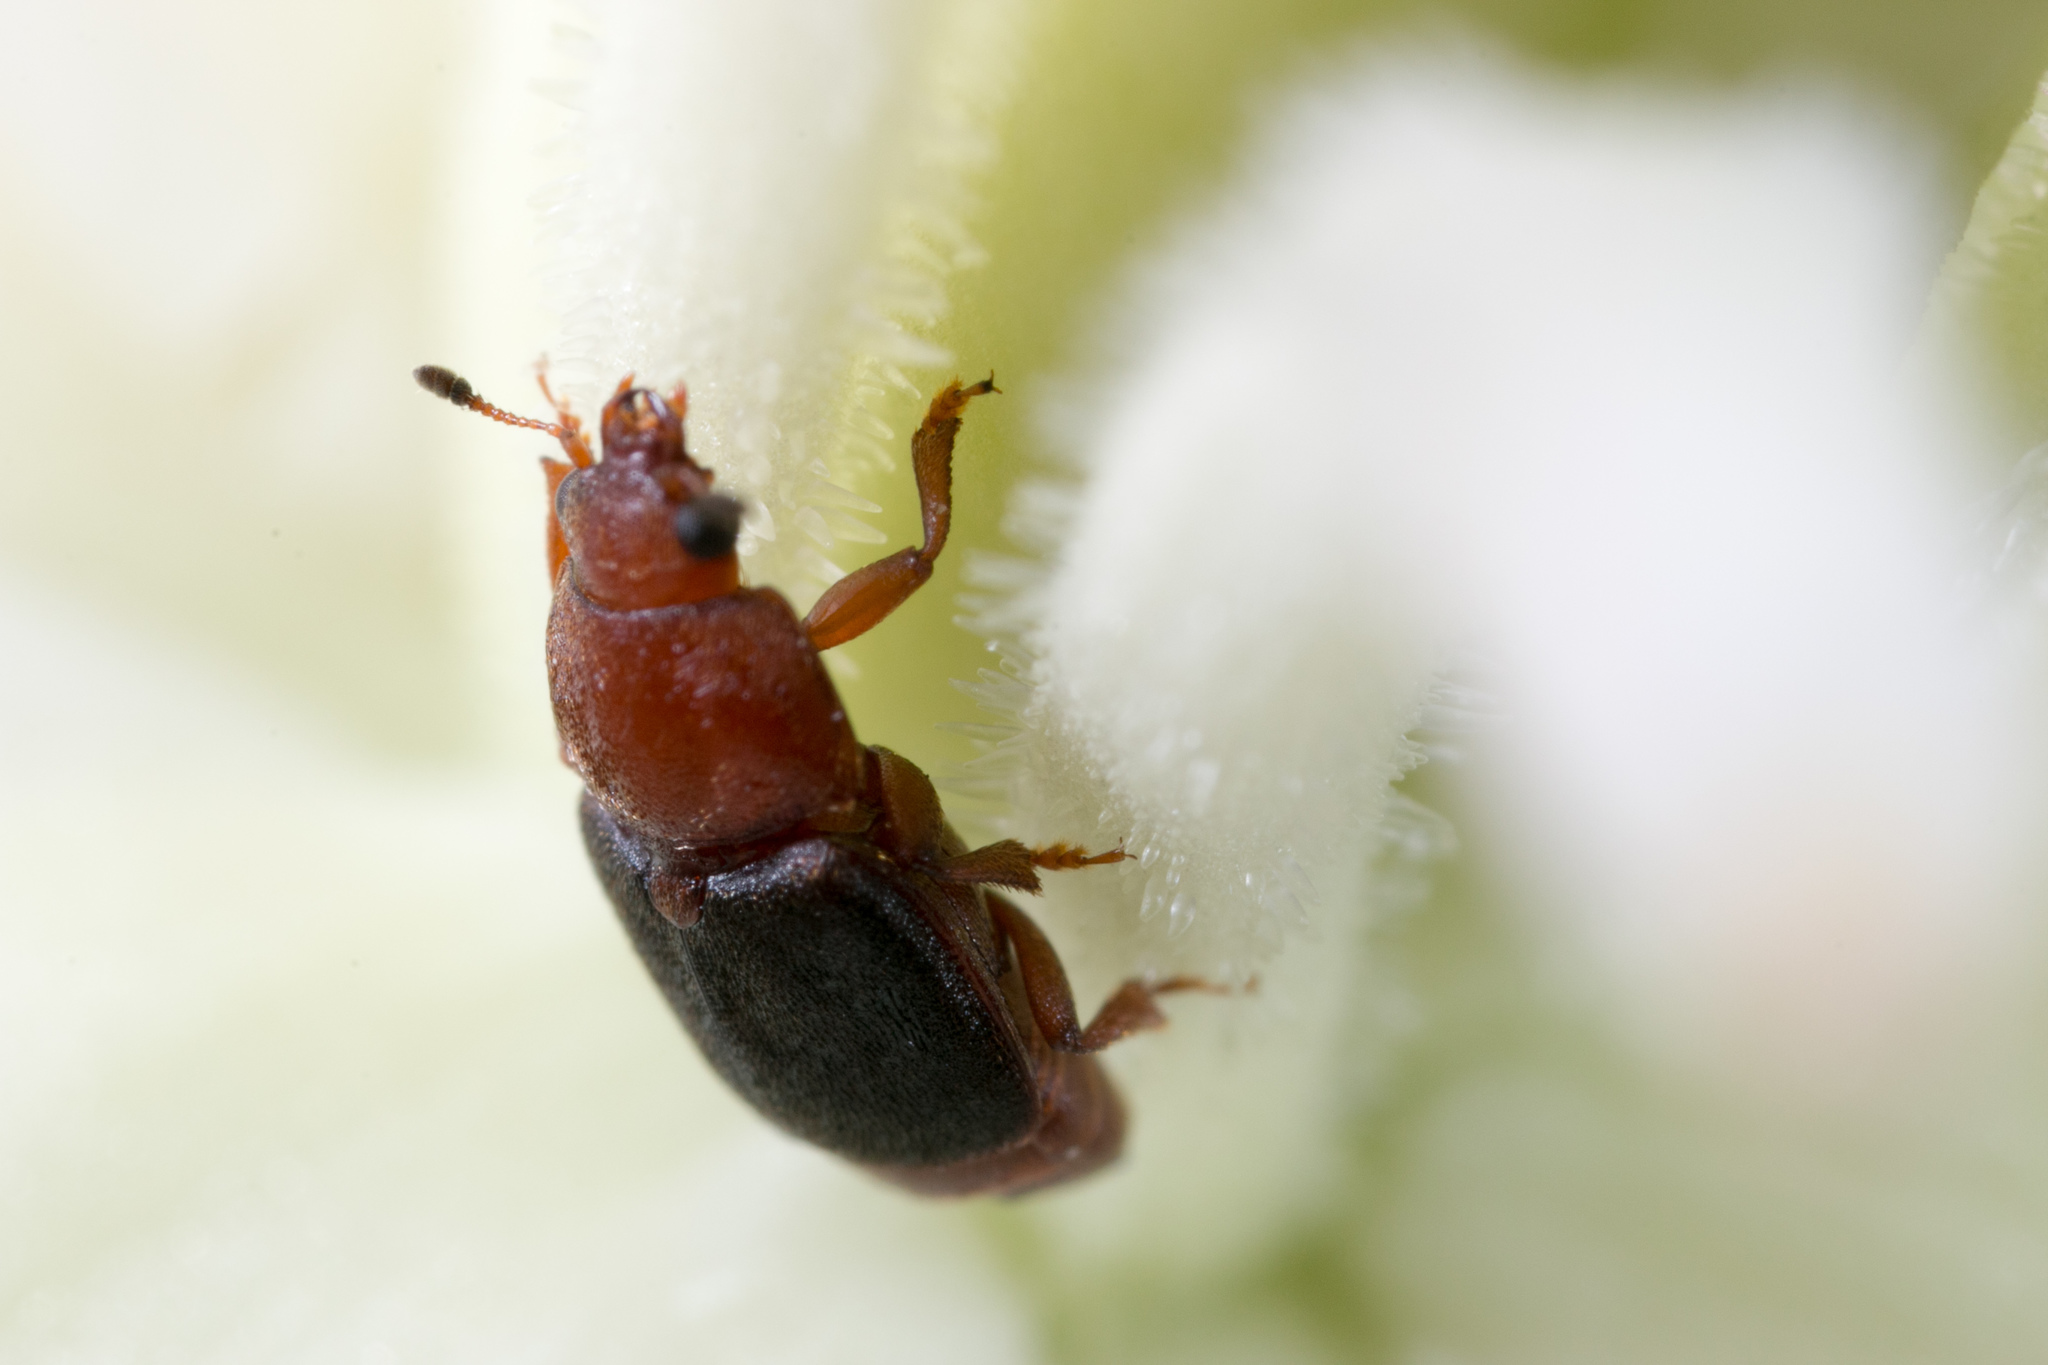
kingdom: Animalia
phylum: Arthropoda
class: Insecta
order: Coleoptera
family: Nitidulidae
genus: Carpophilus
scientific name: Carpophilus
